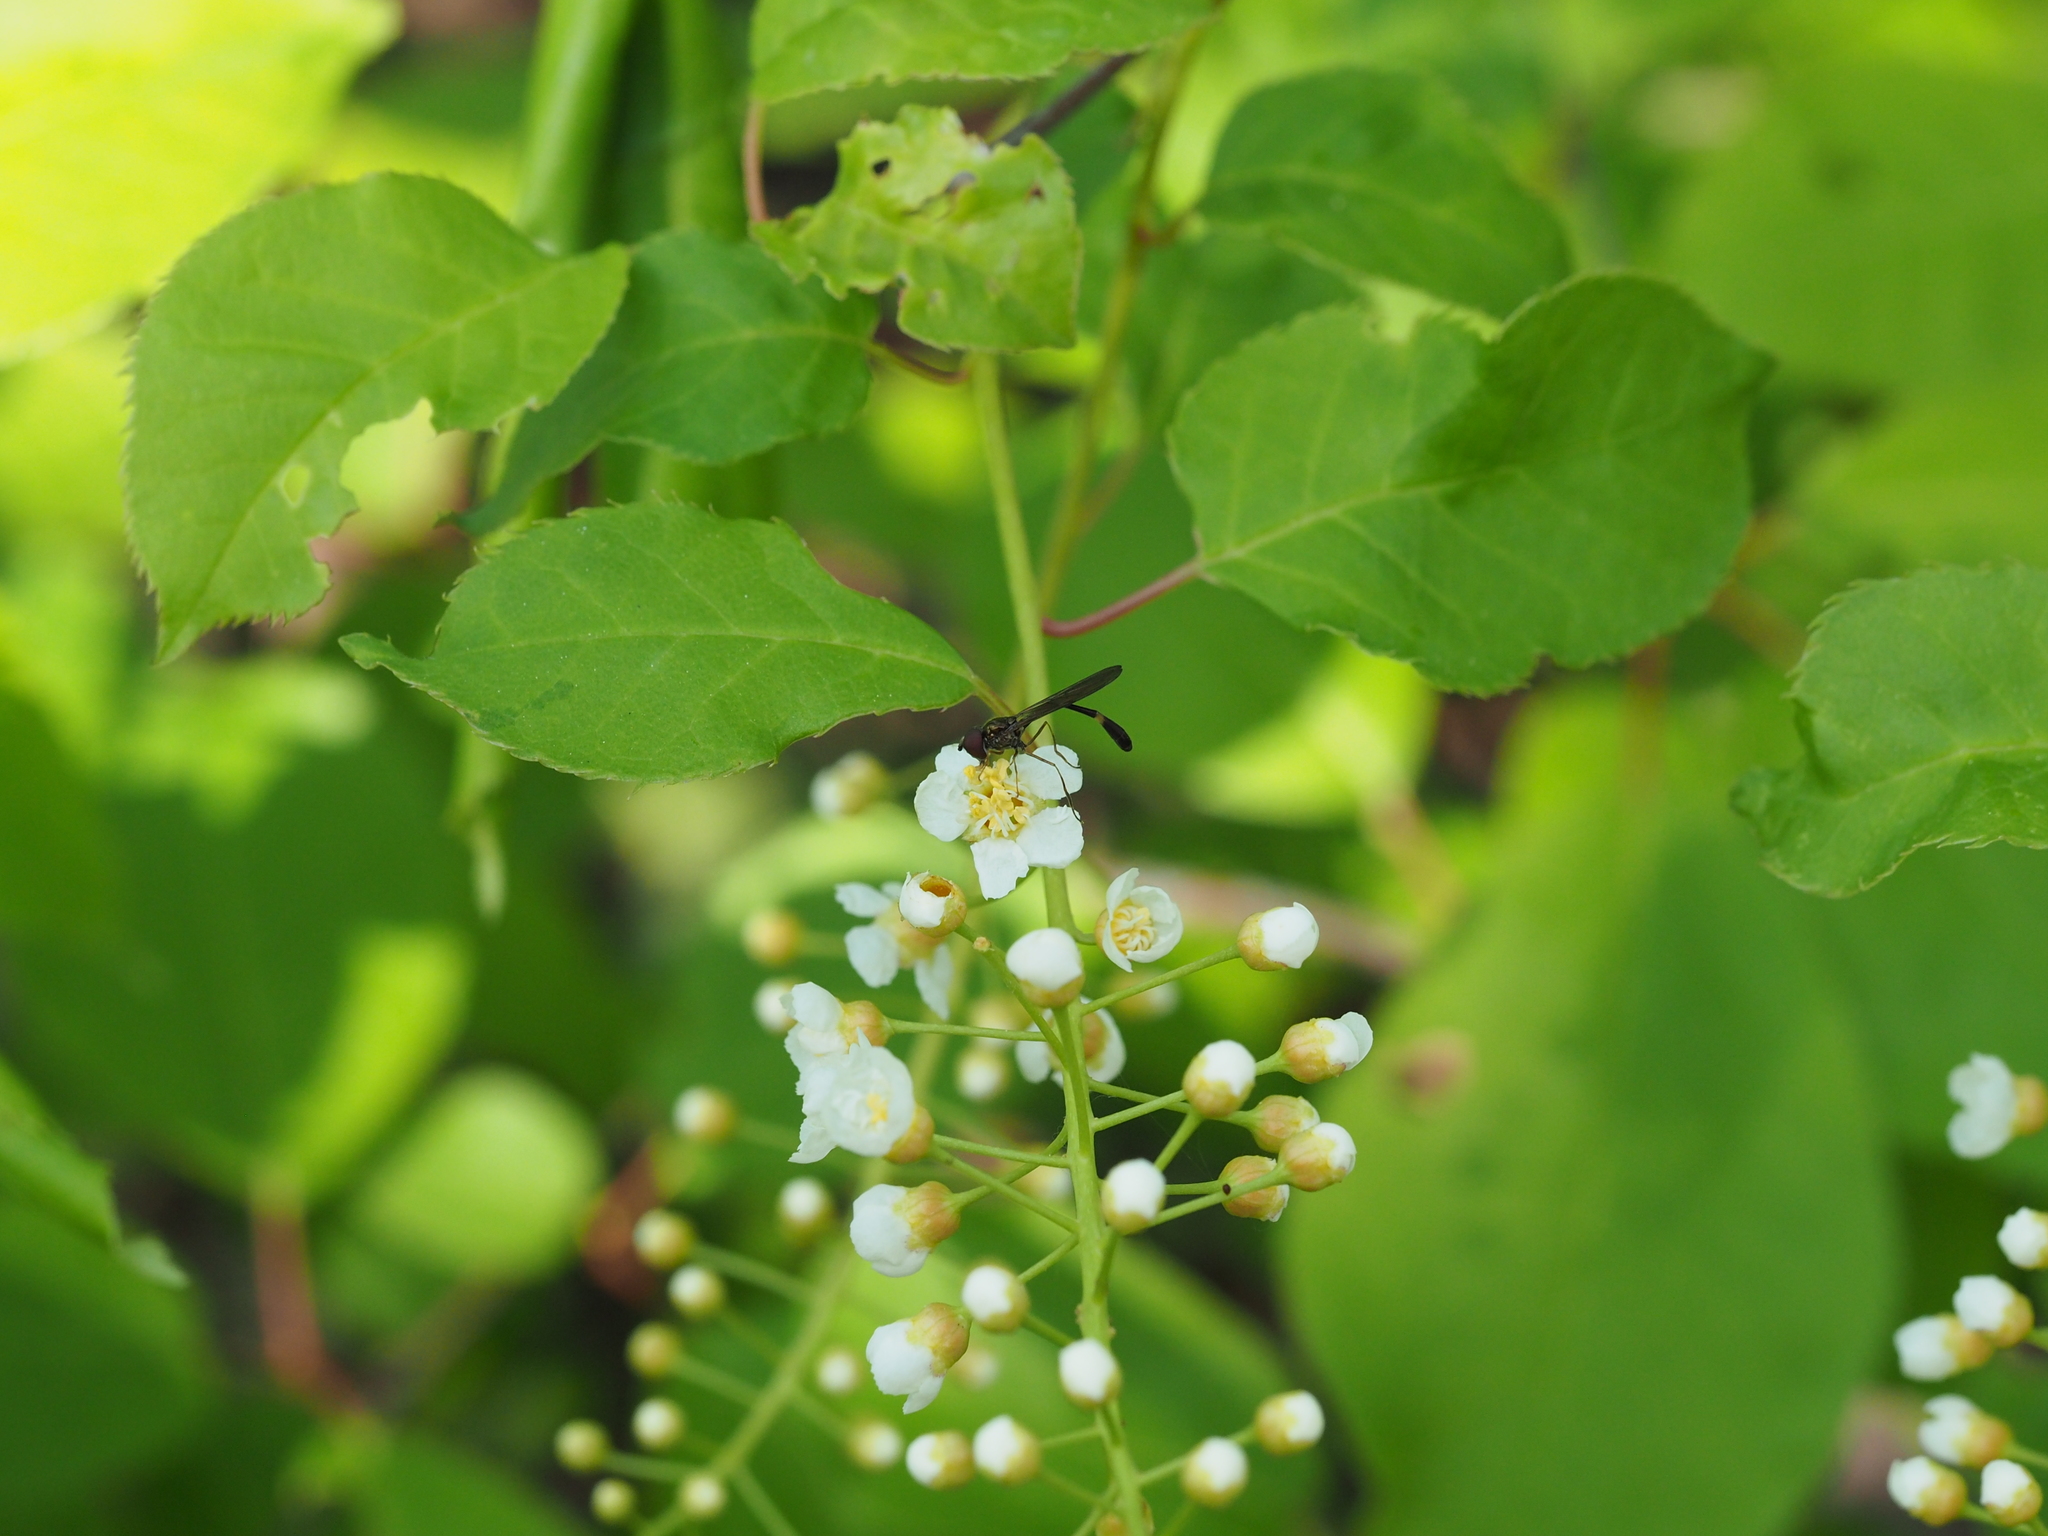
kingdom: Animalia
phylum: Arthropoda
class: Insecta
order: Diptera
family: Syrphidae
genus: Baccha
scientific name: Baccha elongata
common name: Common dainty
